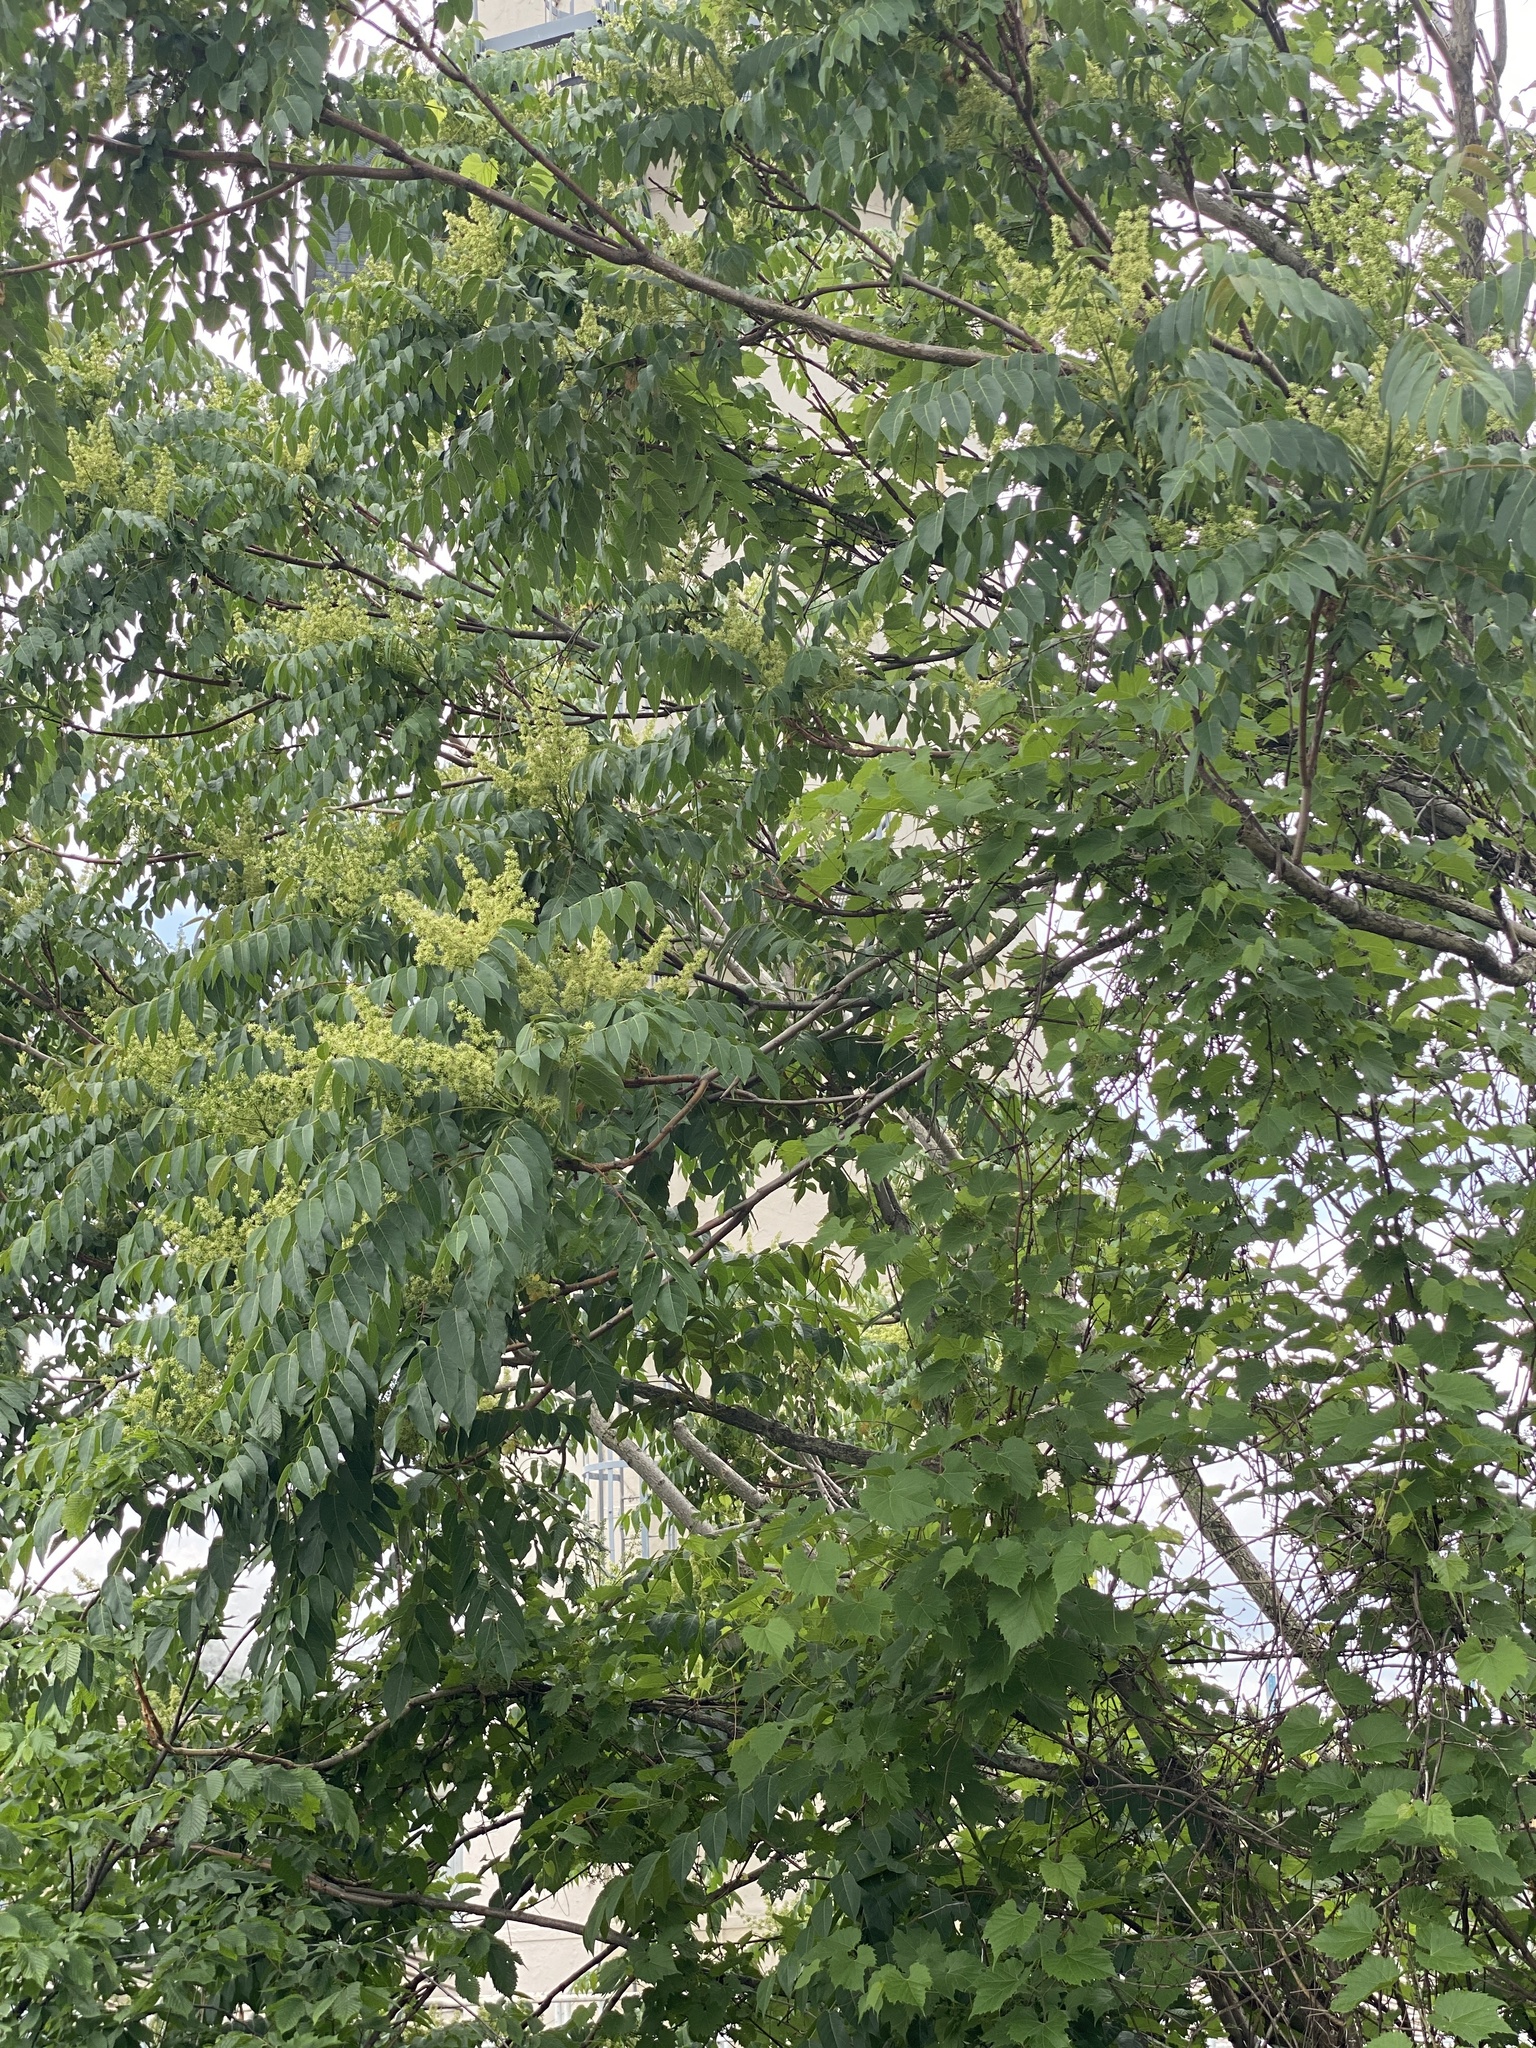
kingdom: Plantae
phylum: Tracheophyta
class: Magnoliopsida
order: Sapindales
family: Simaroubaceae
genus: Ailanthus
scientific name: Ailanthus altissima
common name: Tree-of-heaven
